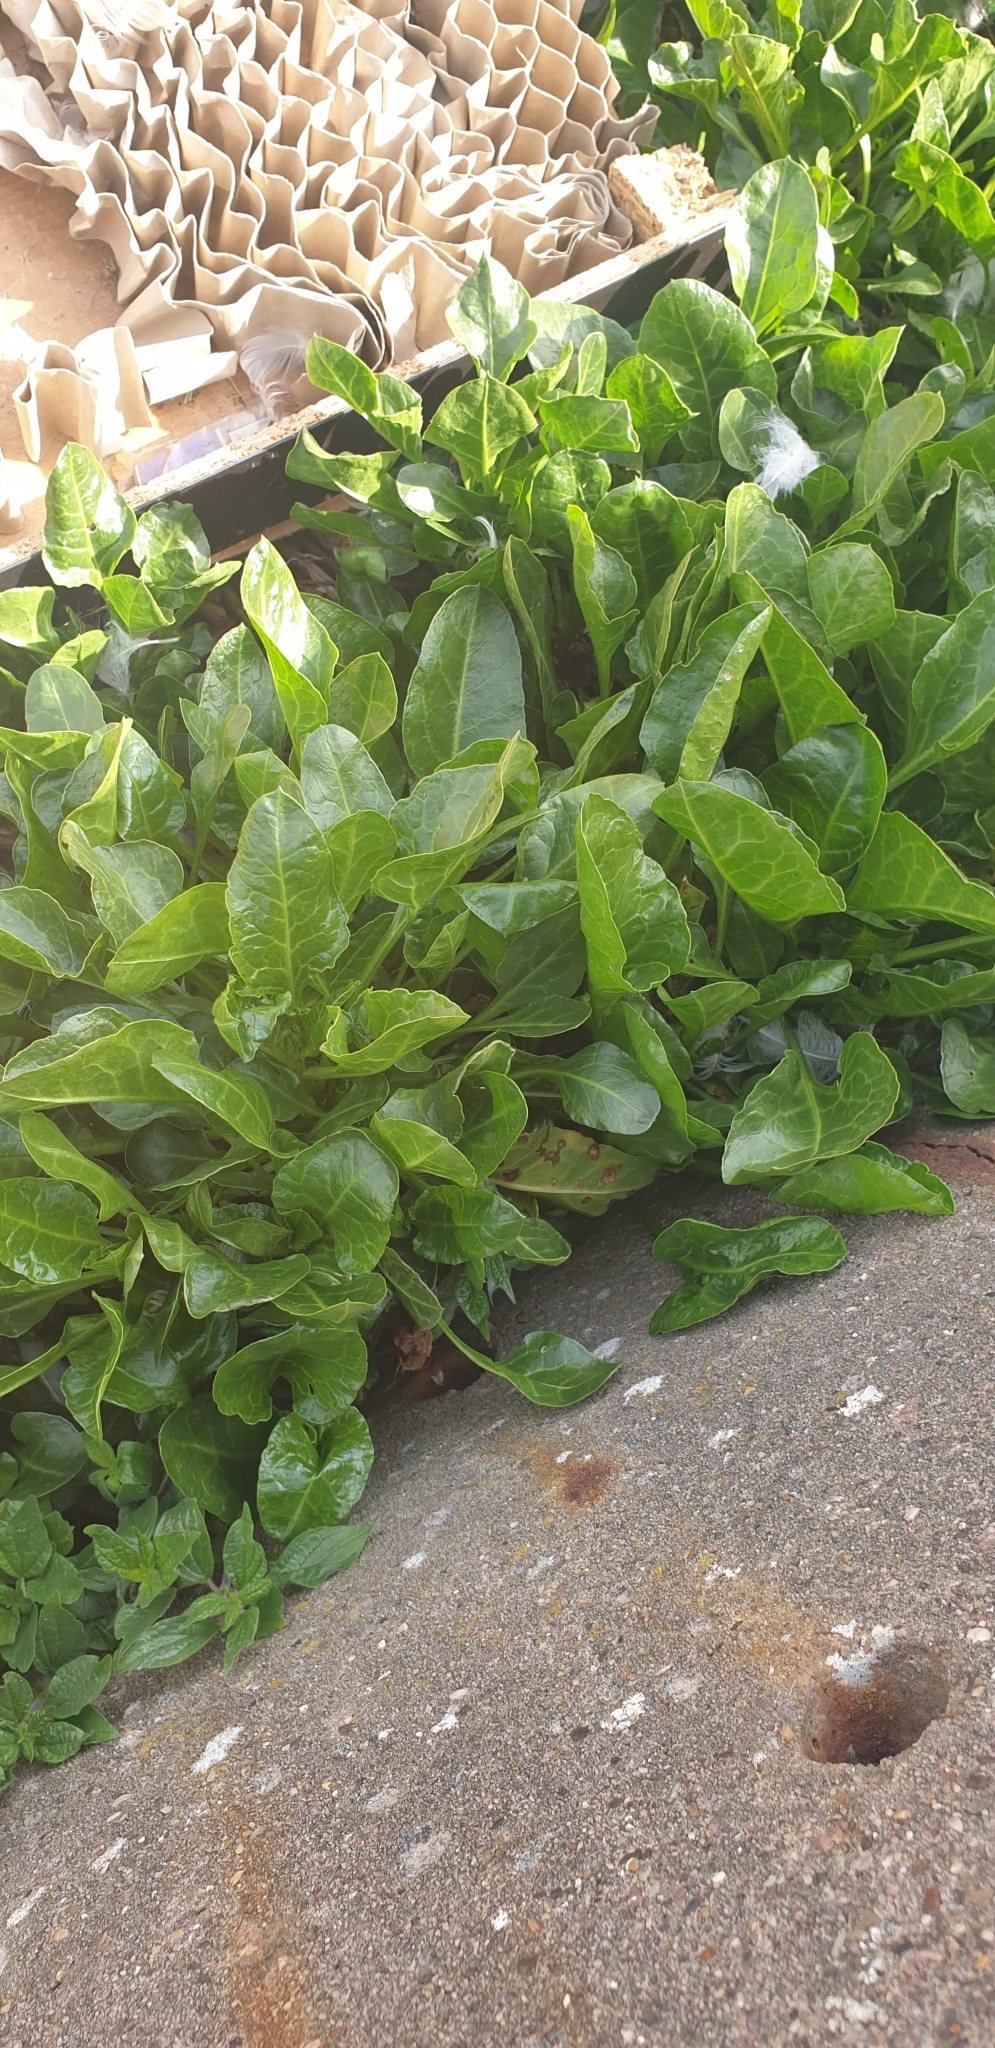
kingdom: Plantae
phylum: Tracheophyta
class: Magnoliopsida
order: Caryophyllales
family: Amaranthaceae
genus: Beta
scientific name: Beta vulgaris
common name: Beet
